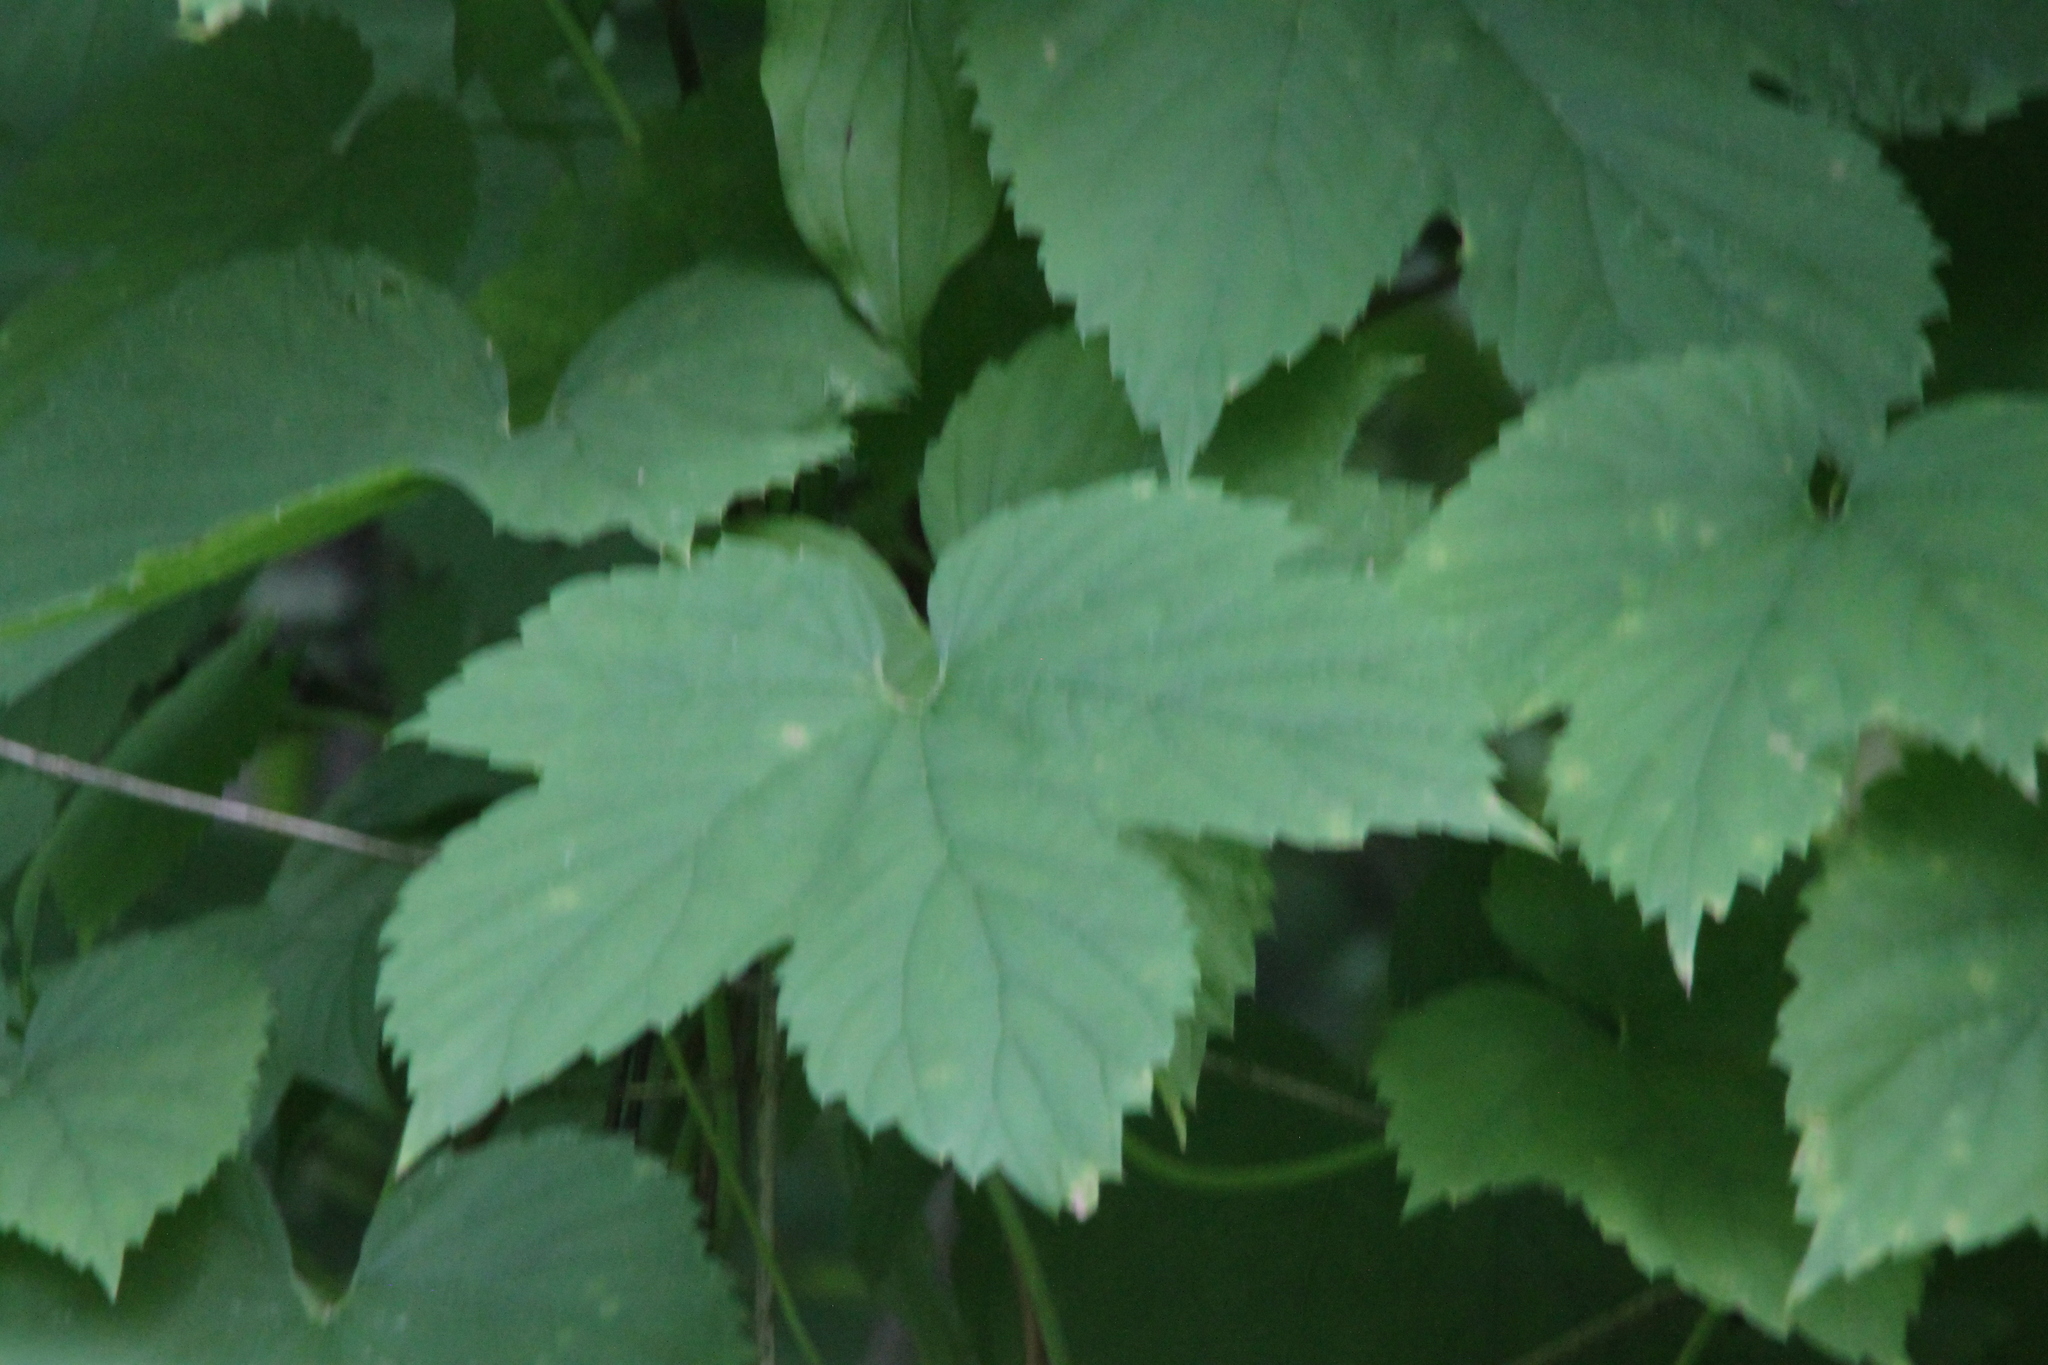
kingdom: Plantae
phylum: Tracheophyta
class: Magnoliopsida
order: Rosales
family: Cannabaceae
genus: Humulus
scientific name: Humulus lupulus
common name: Hop
